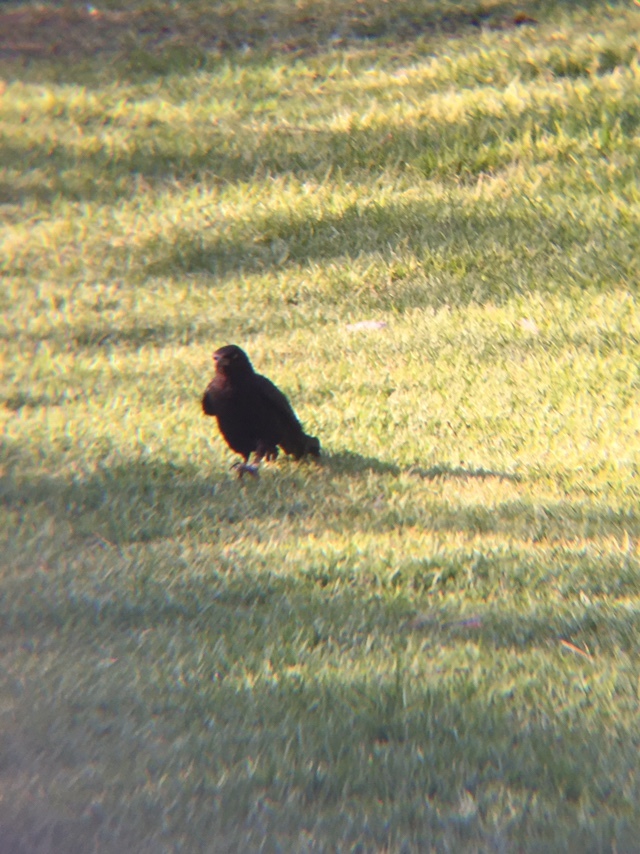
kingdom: Animalia
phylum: Chordata
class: Aves
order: Passeriformes
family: Icteridae
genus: Quiscalus
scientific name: Quiscalus mexicanus
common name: Great-tailed grackle
